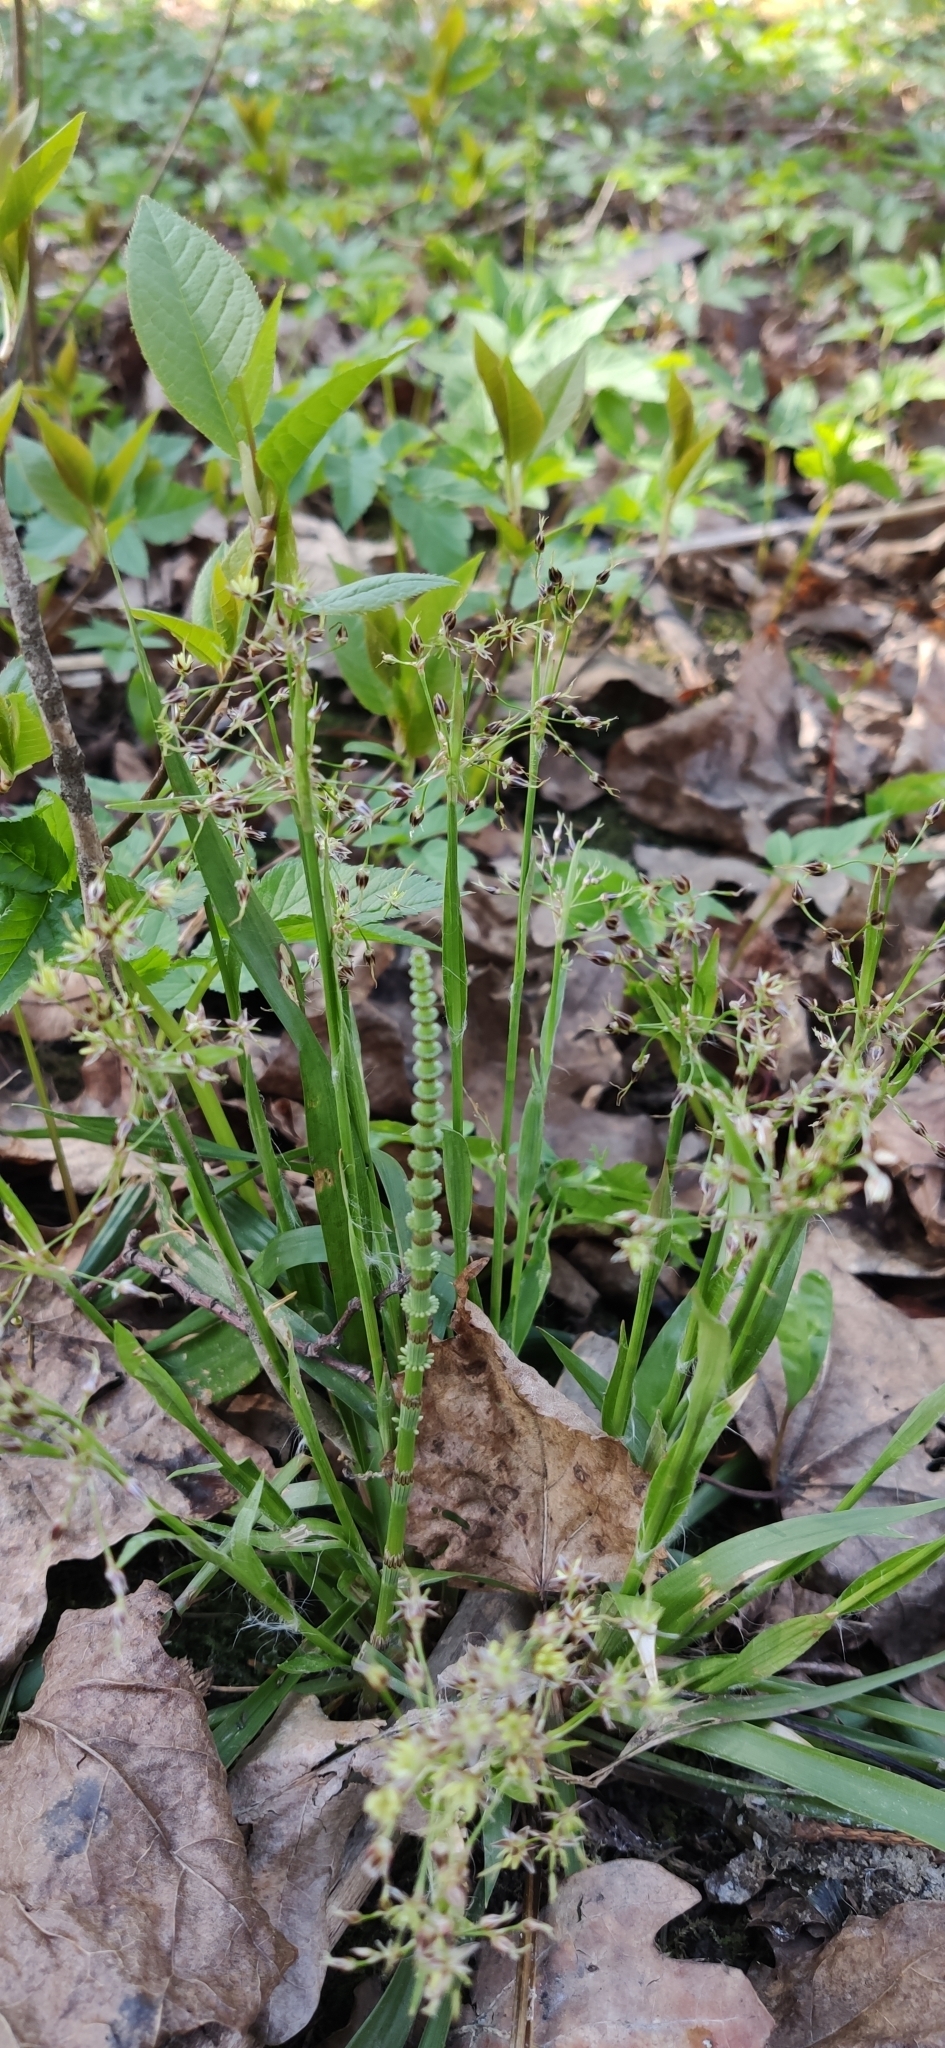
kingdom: Plantae
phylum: Tracheophyta
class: Liliopsida
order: Poales
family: Juncaceae
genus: Luzula
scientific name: Luzula pilosa
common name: Hairy wood-rush
